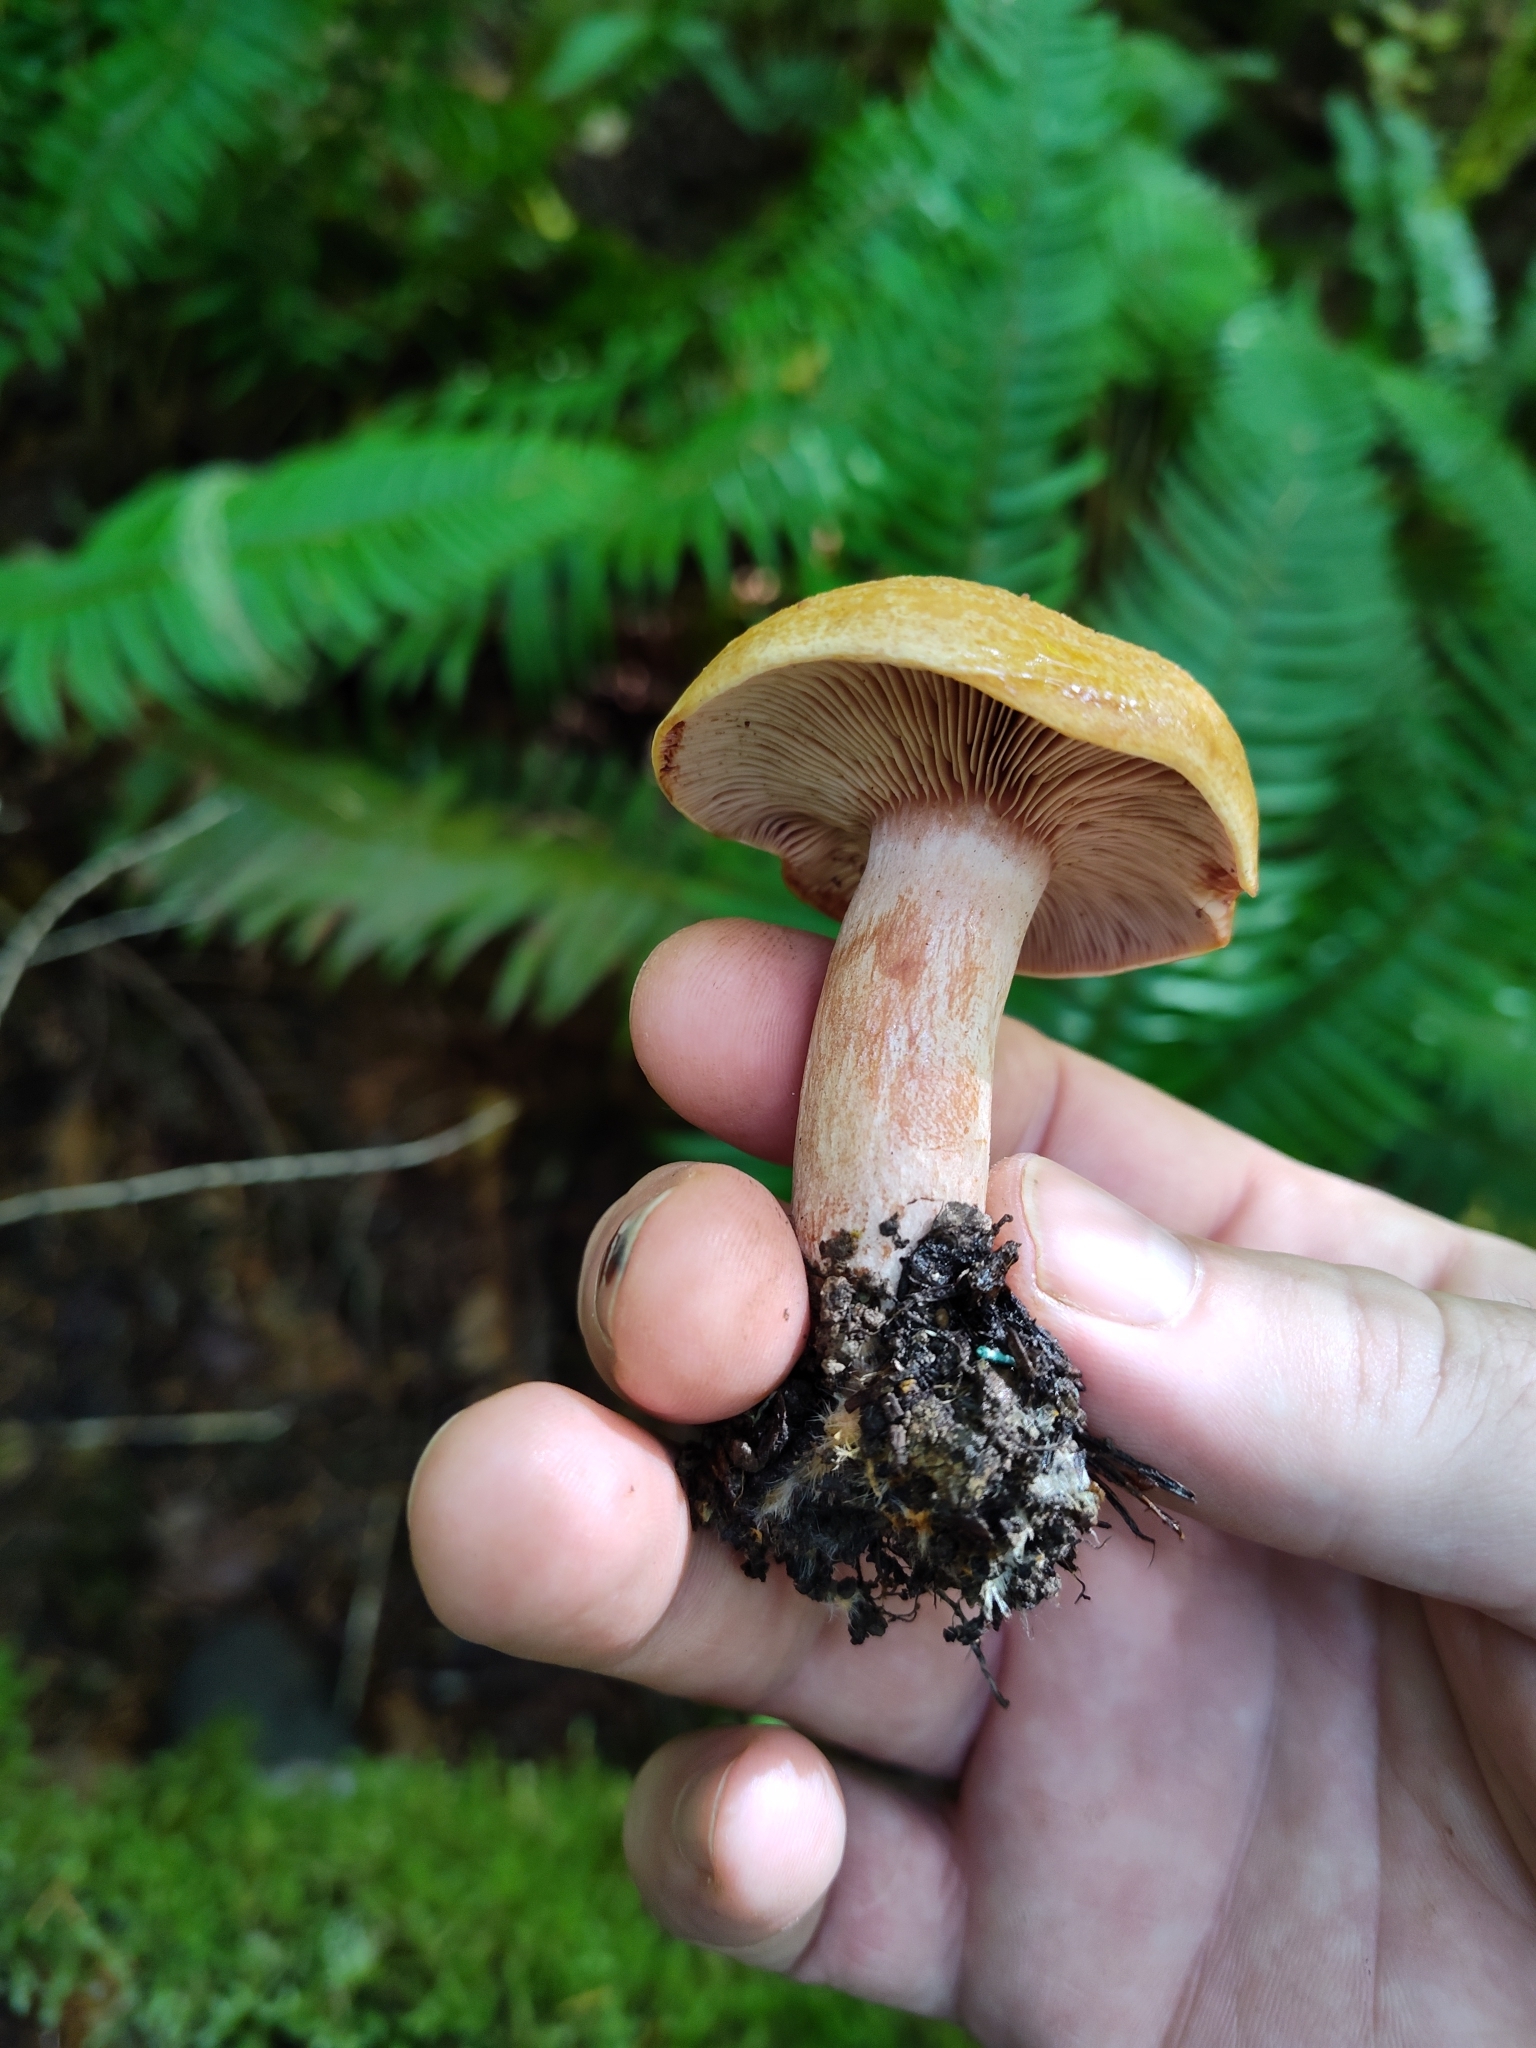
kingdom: Fungi
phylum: Basidiomycota
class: Agaricomycetes
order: Russulales
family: Russulaceae
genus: Lactarius
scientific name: Lactarius rubrilacteus
